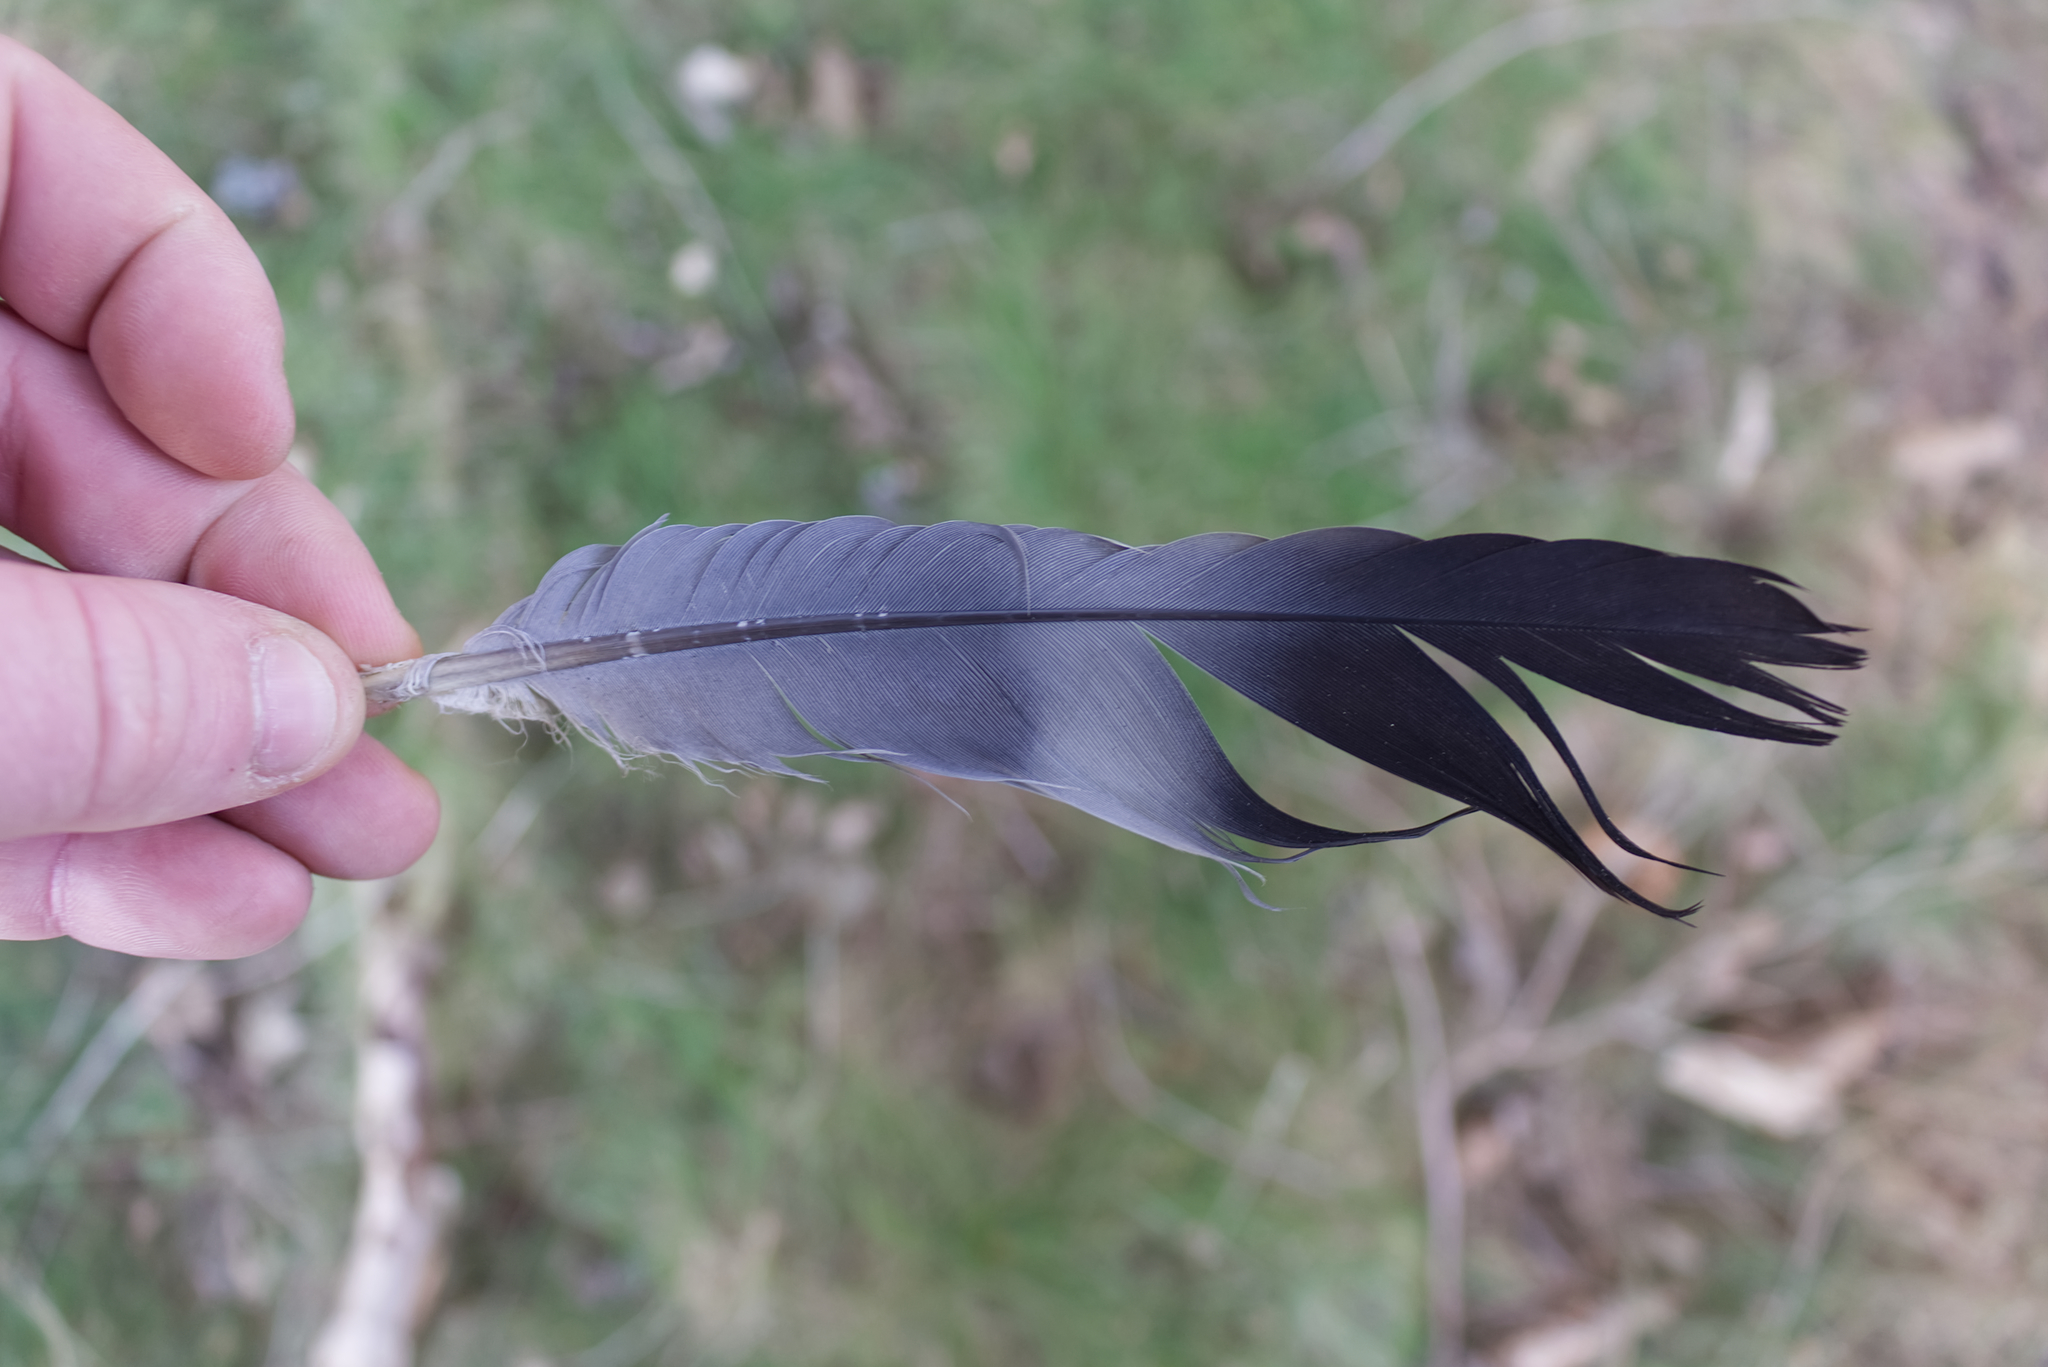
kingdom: Animalia
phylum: Chordata
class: Aves
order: Columbiformes
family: Columbidae
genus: Columba
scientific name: Columba palumbus
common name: Common wood pigeon
